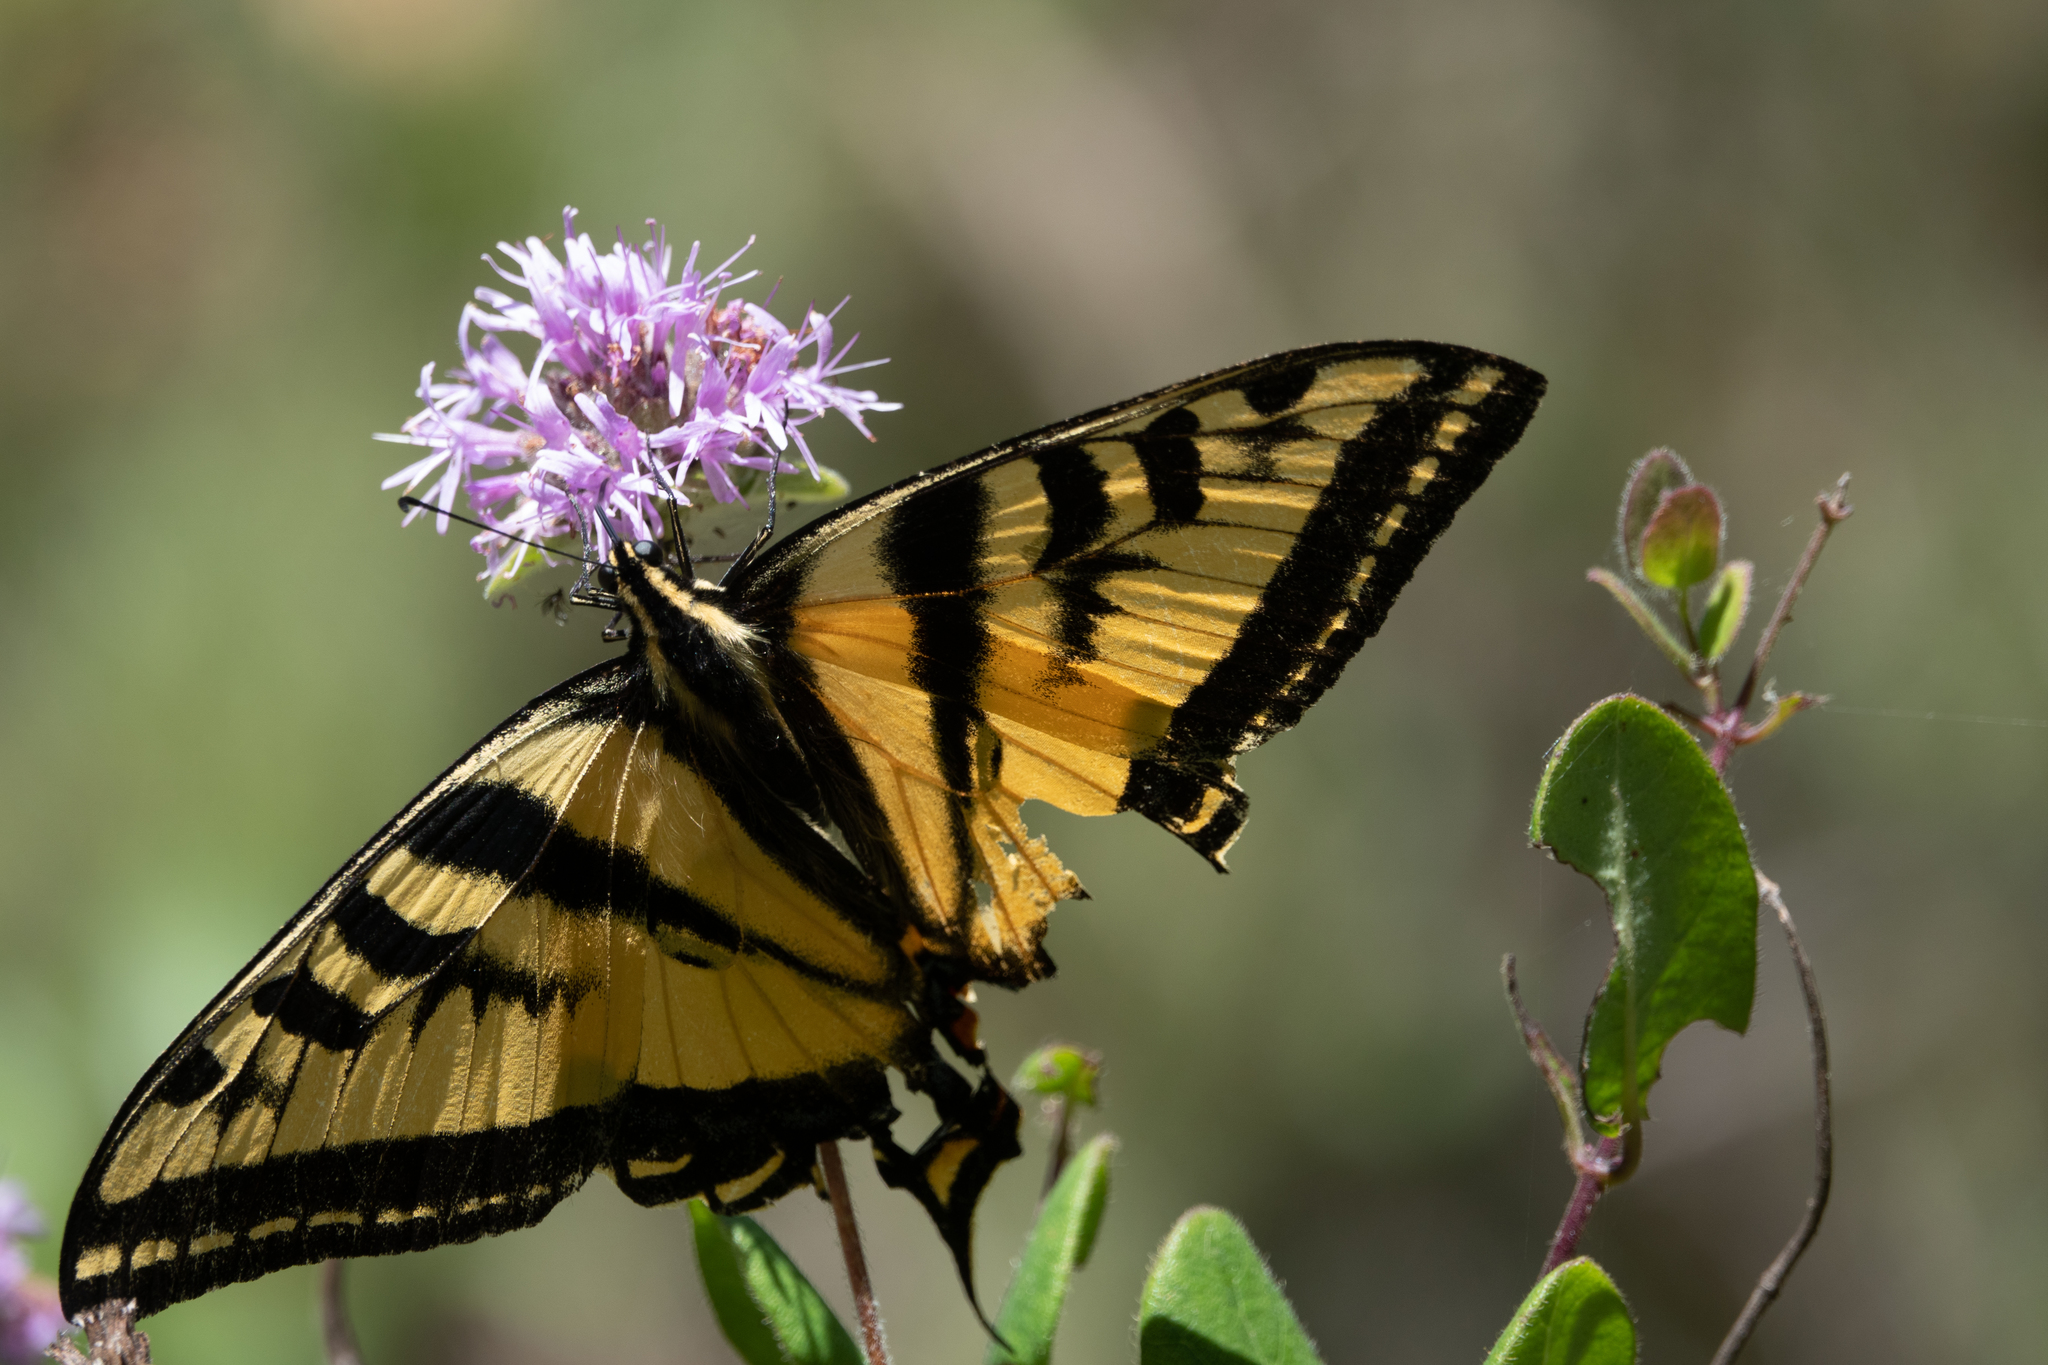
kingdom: Animalia
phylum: Arthropoda
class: Insecta
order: Lepidoptera
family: Papilionidae
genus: Papilio
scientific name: Papilio rutulus
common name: Western tiger swallowtail
